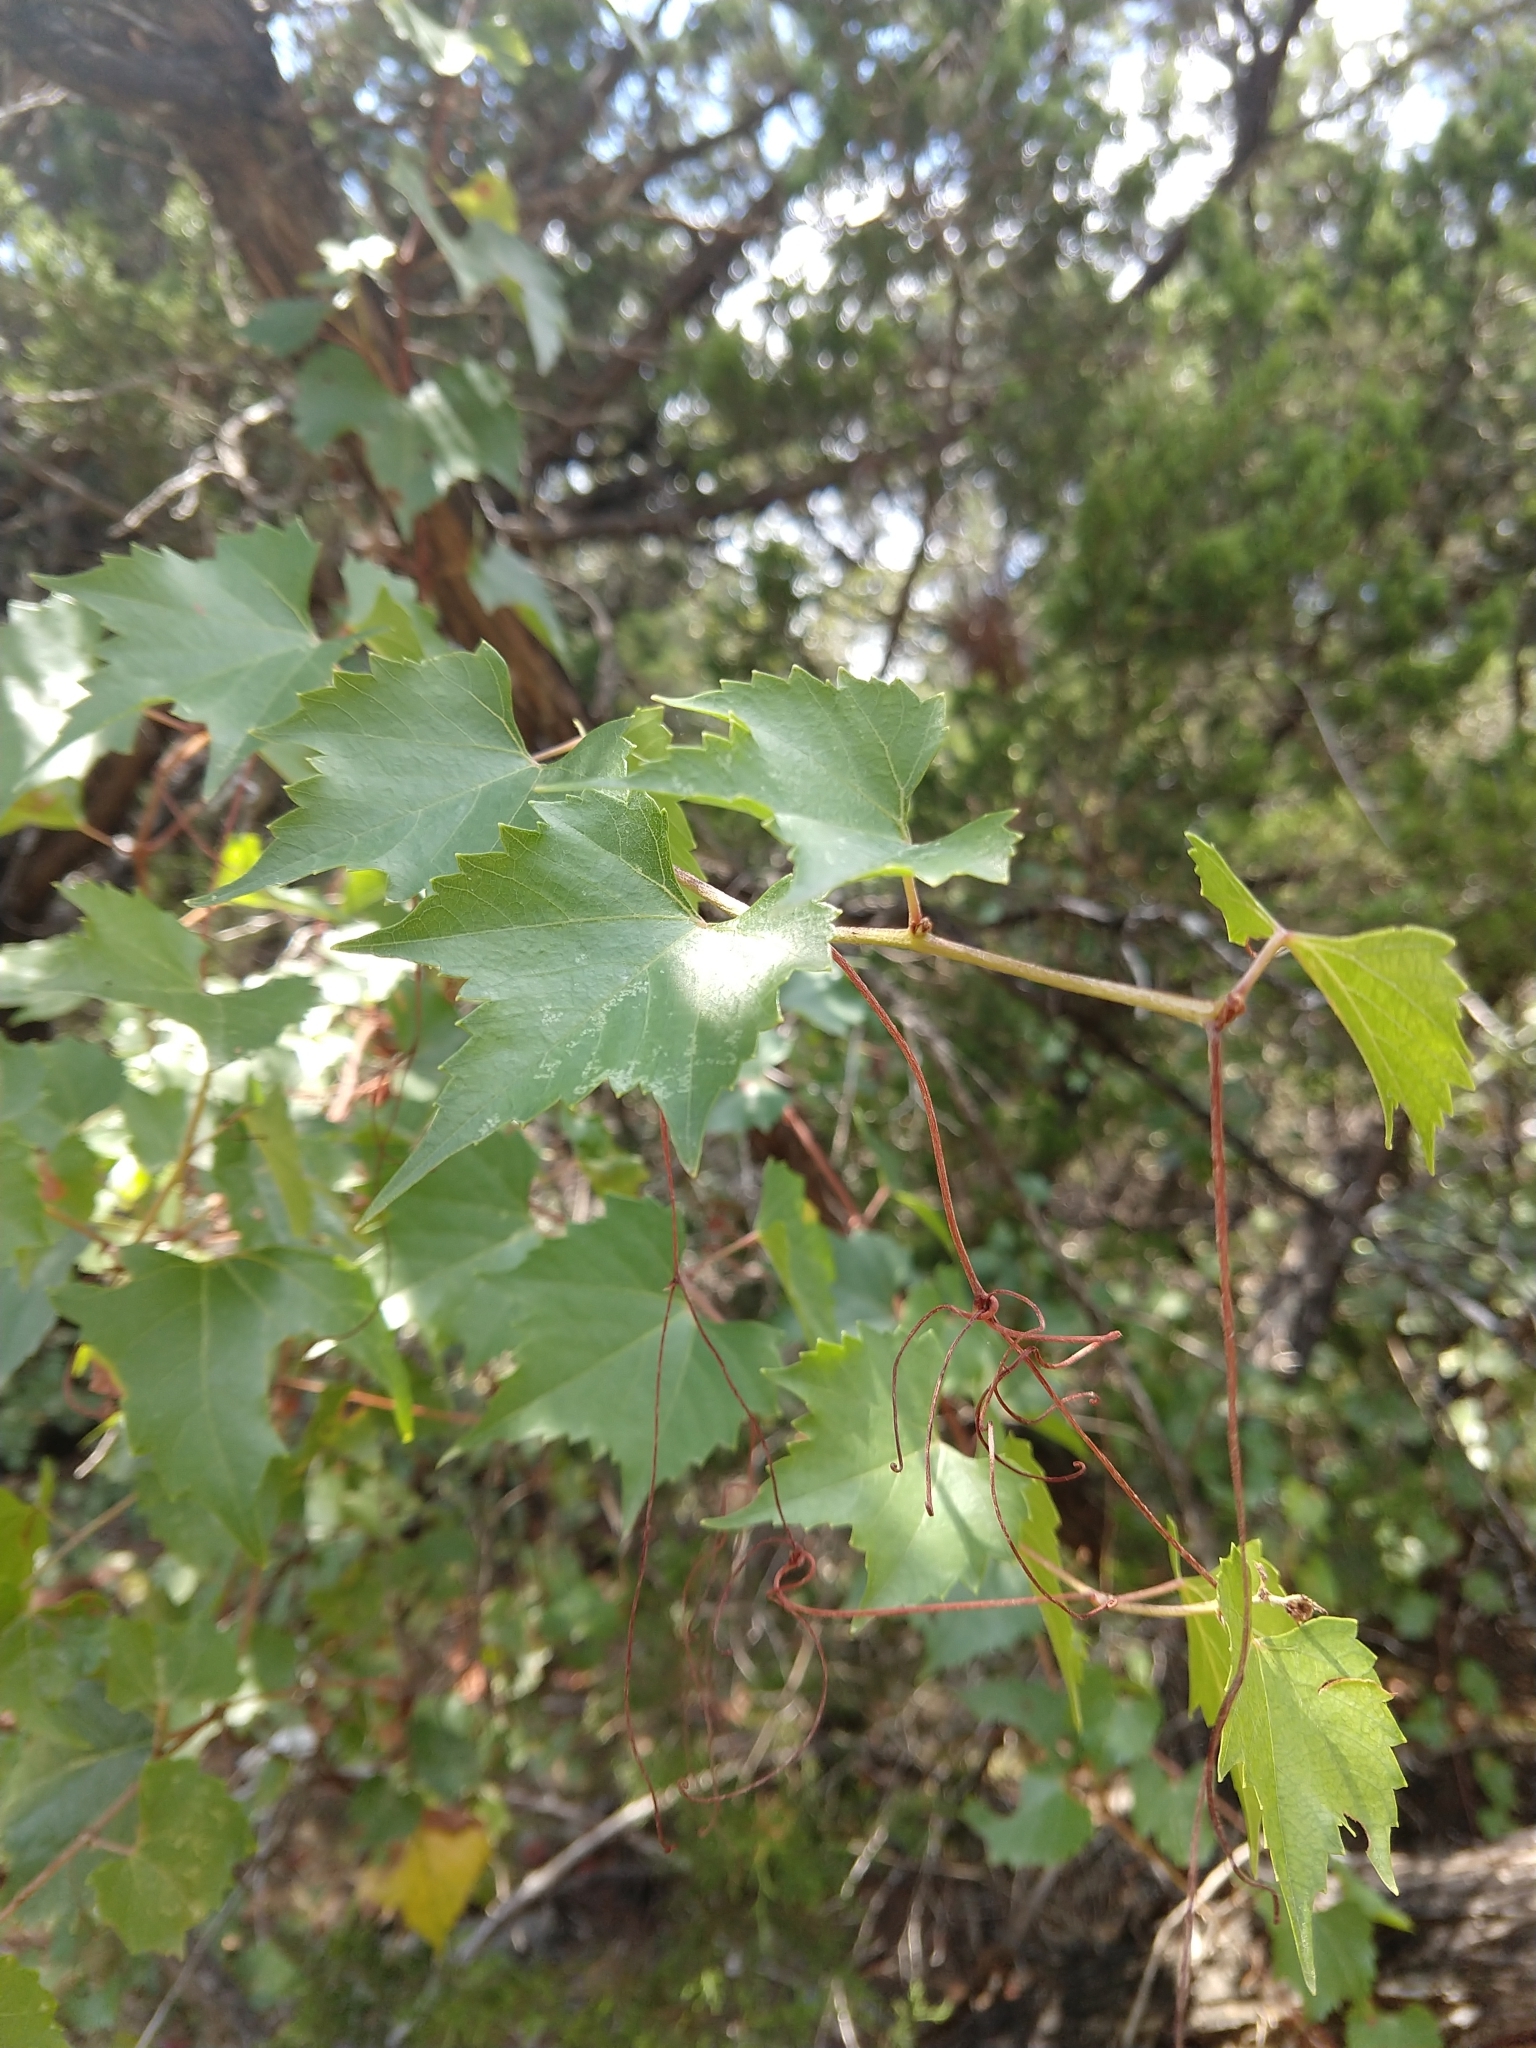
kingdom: Plantae
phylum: Tracheophyta
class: Magnoliopsida
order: Vitales
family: Vitaceae
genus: Vitis
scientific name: Vitis monticola
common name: Mountain grape
